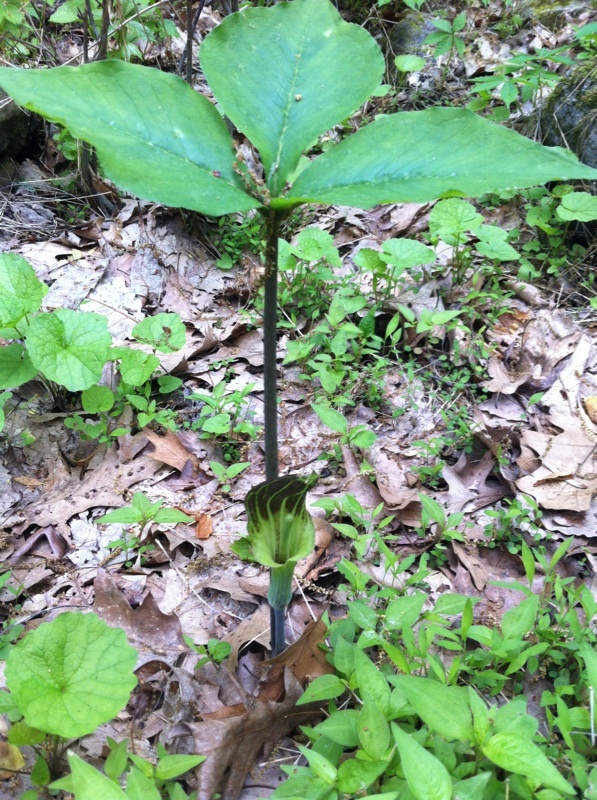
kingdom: Plantae
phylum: Tracheophyta
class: Liliopsida
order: Alismatales
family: Araceae
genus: Arisaema
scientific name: Arisaema triphyllum
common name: Jack-in-the-pulpit
